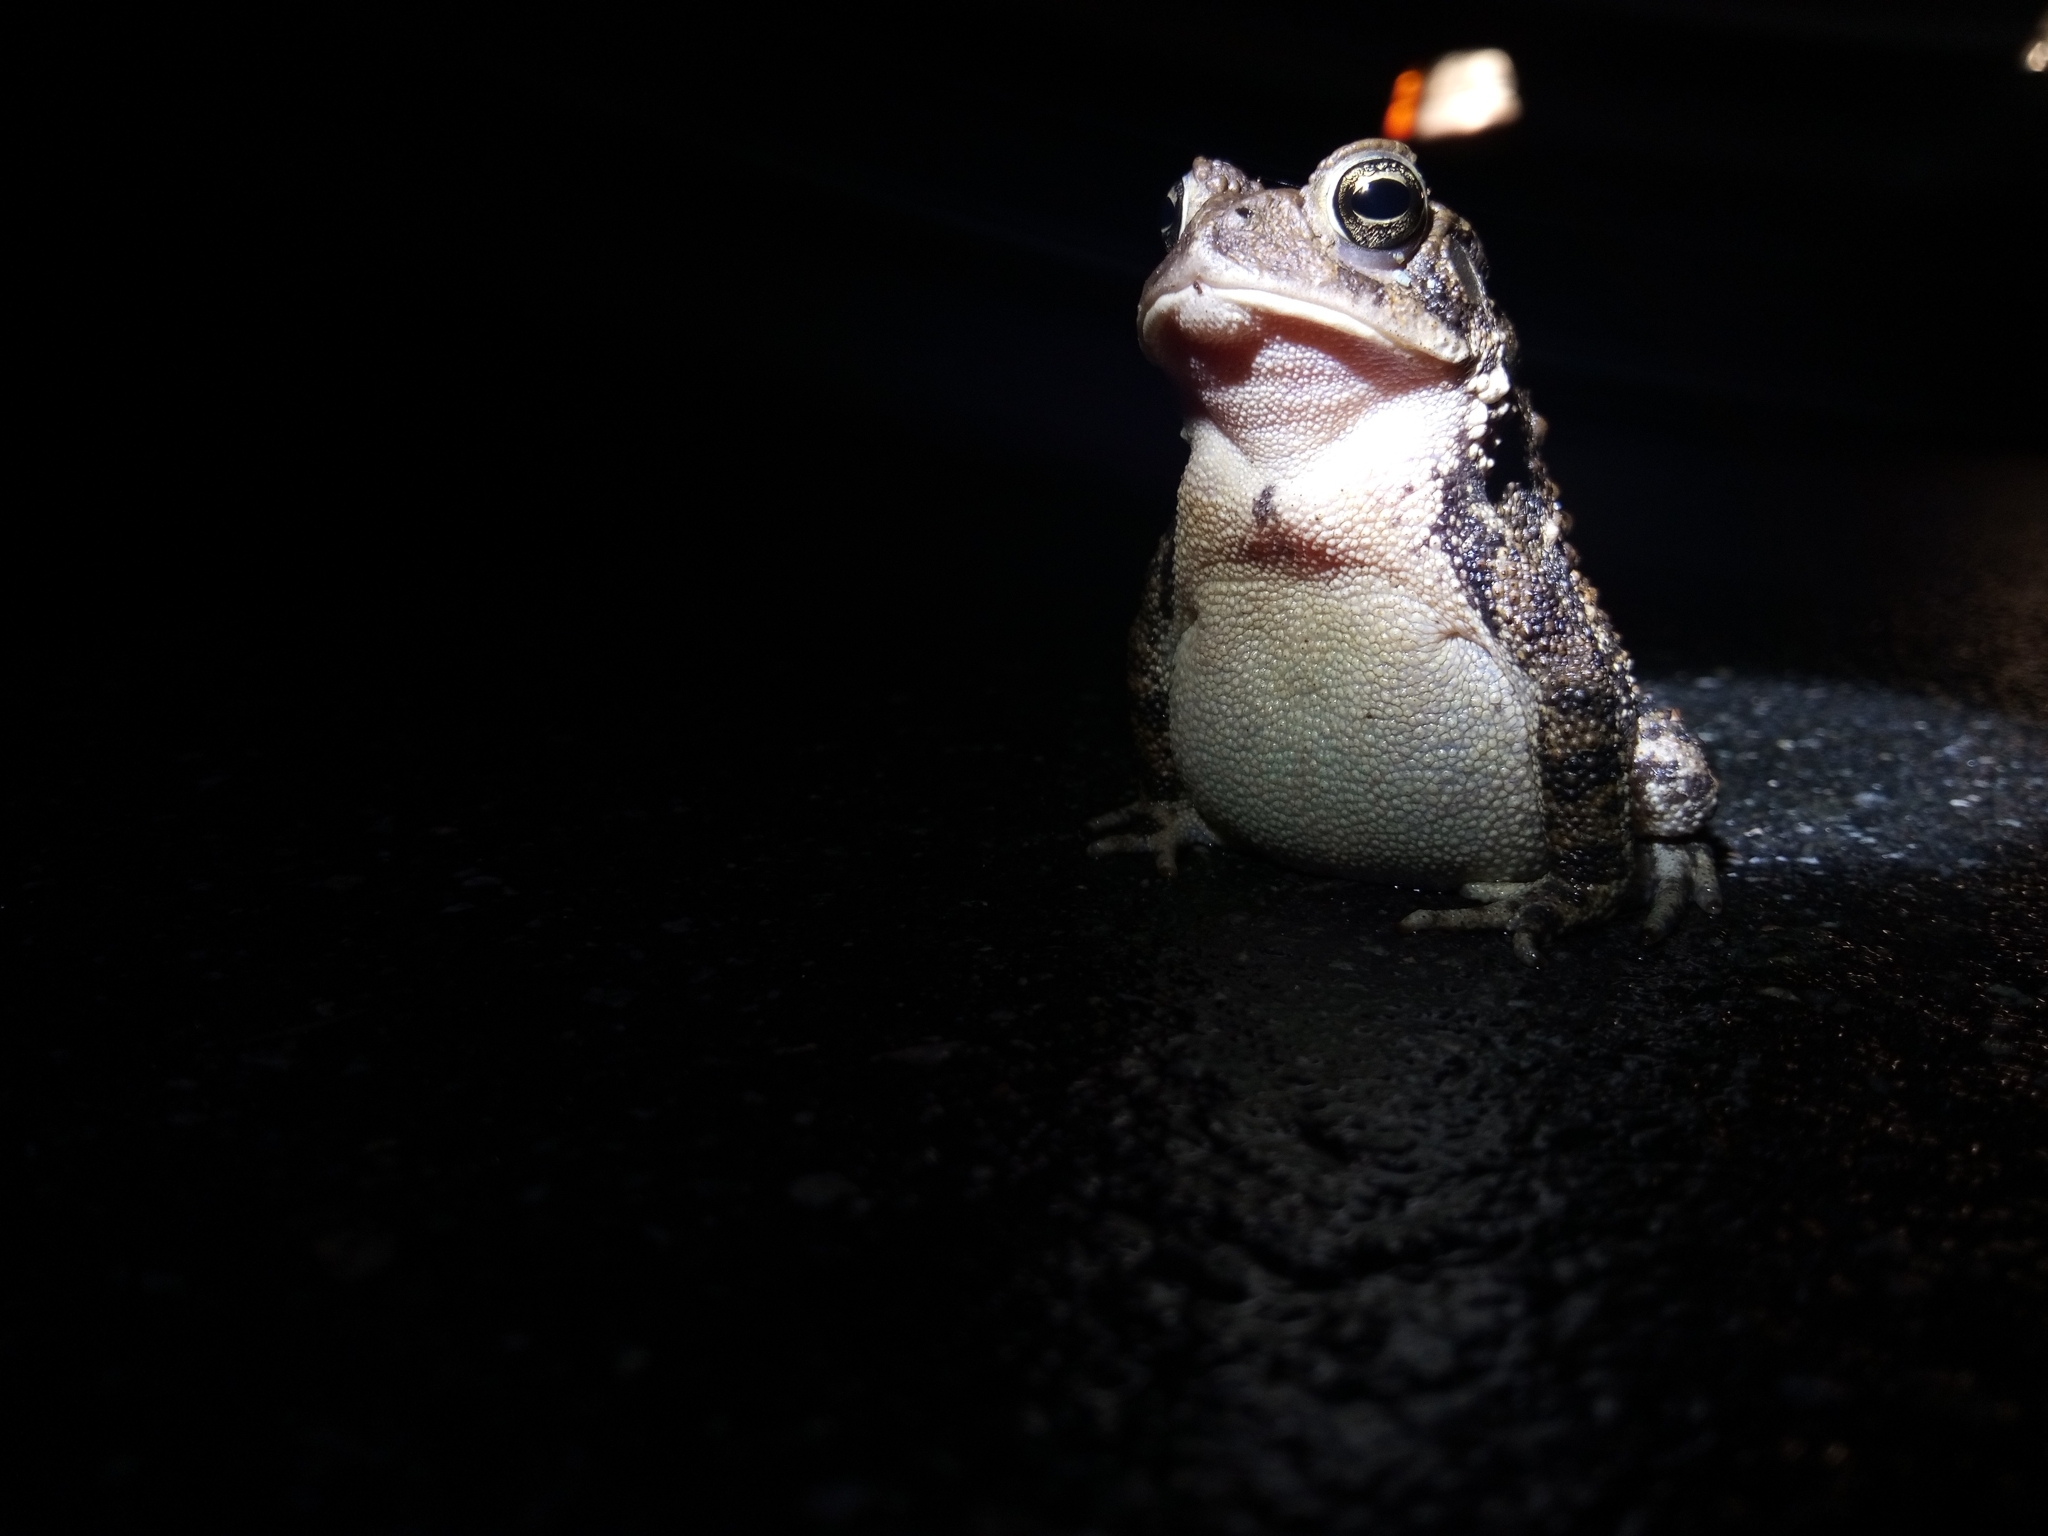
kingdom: Animalia
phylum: Chordata
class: Amphibia
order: Anura
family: Bufonidae
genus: Anaxyrus
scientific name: Anaxyrus americanus
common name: American toad
